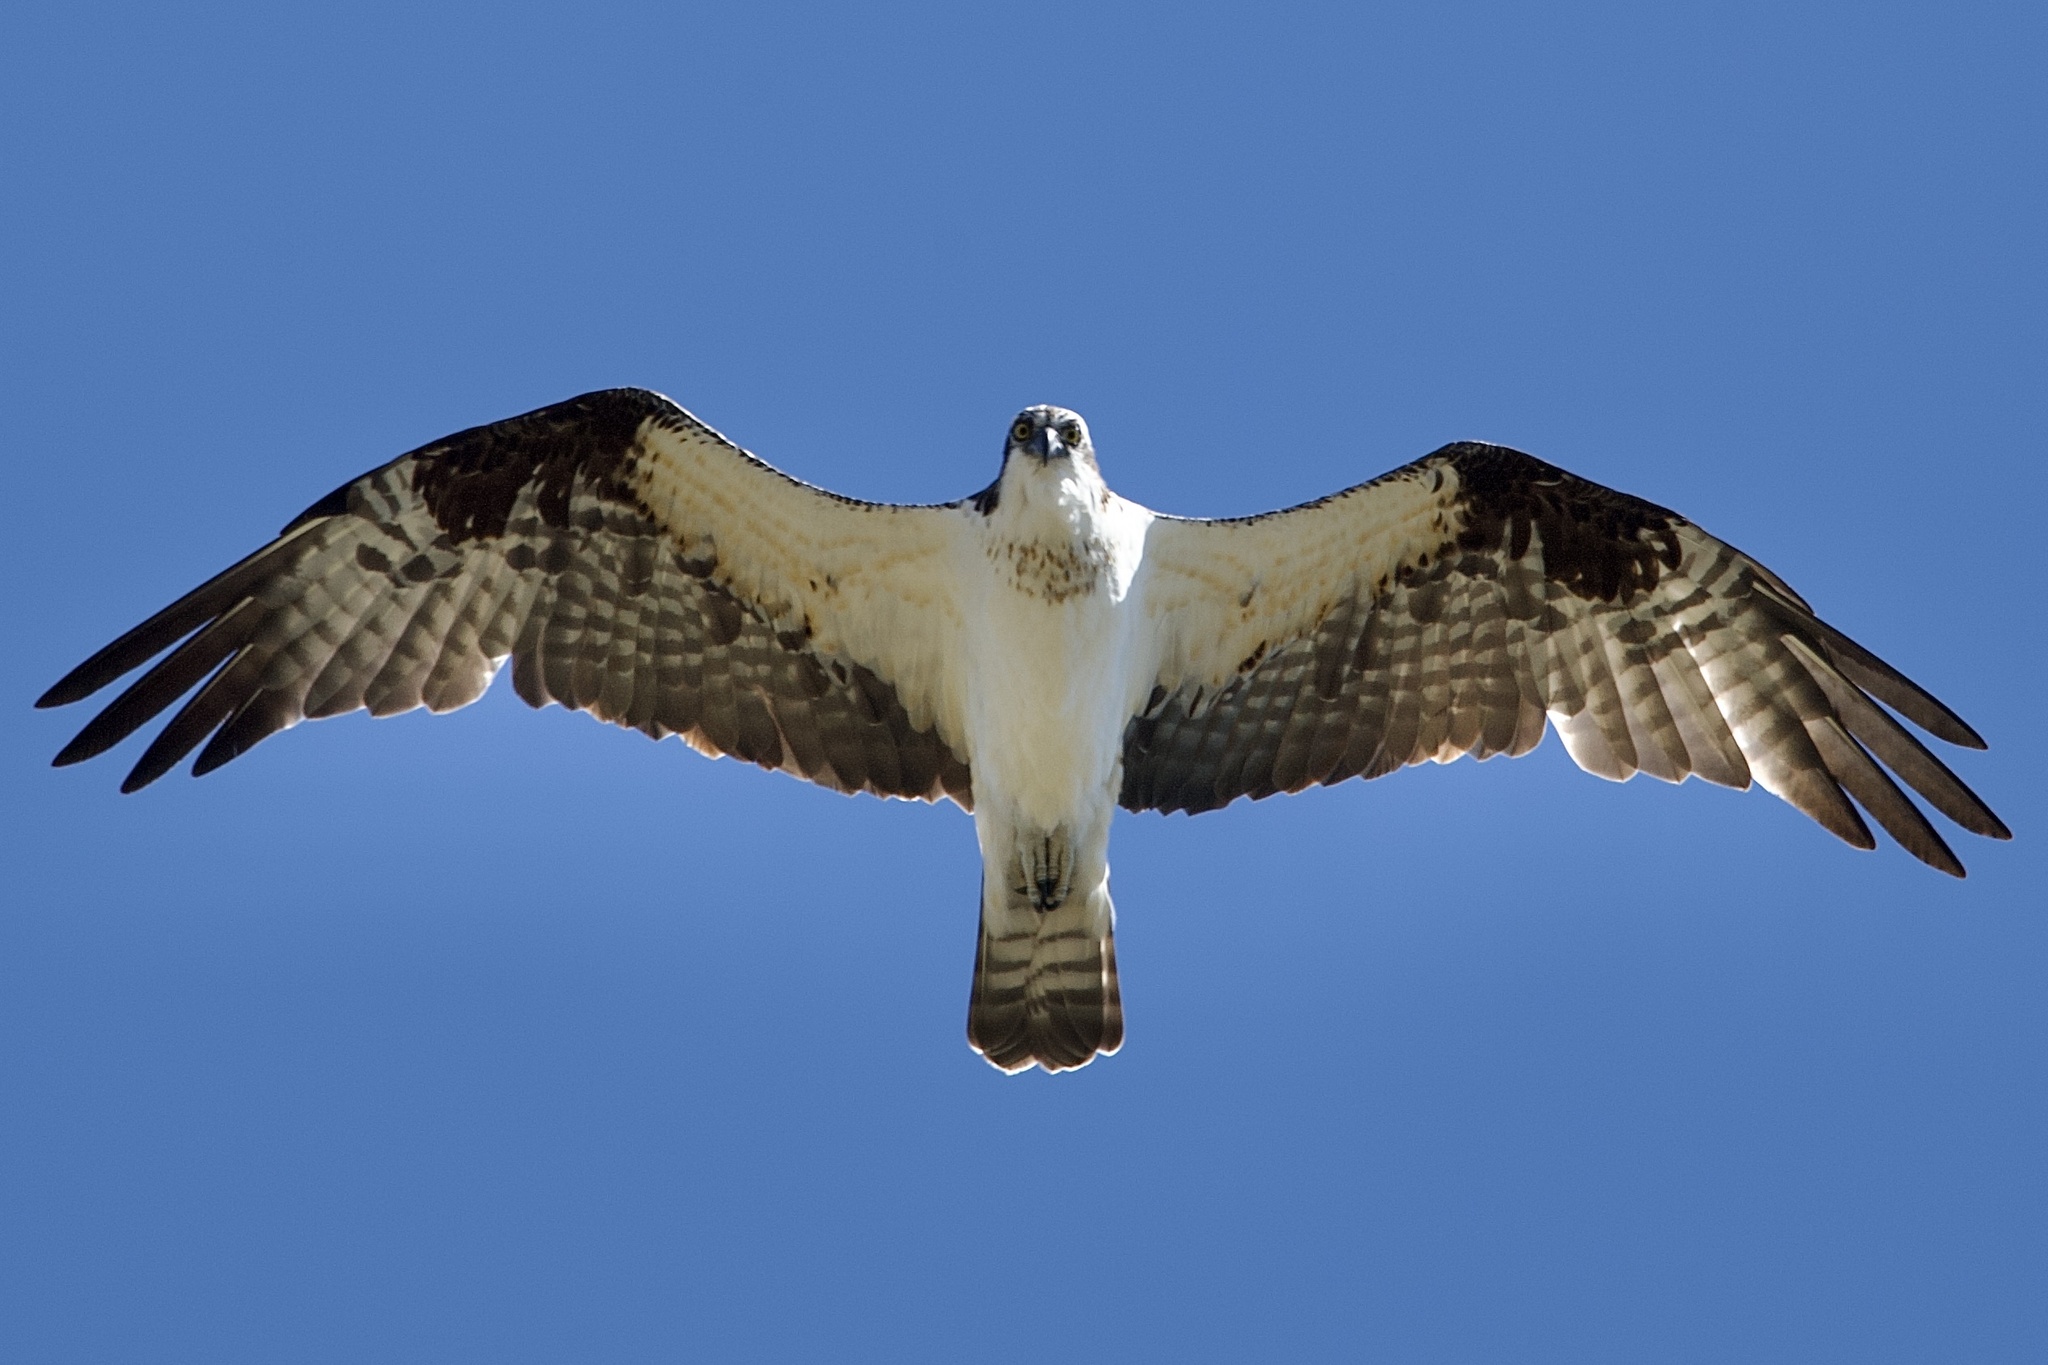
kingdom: Animalia
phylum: Chordata
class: Aves
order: Accipitriformes
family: Pandionidae
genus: Pandion
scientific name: Pandion haliaetus
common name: Osprey
